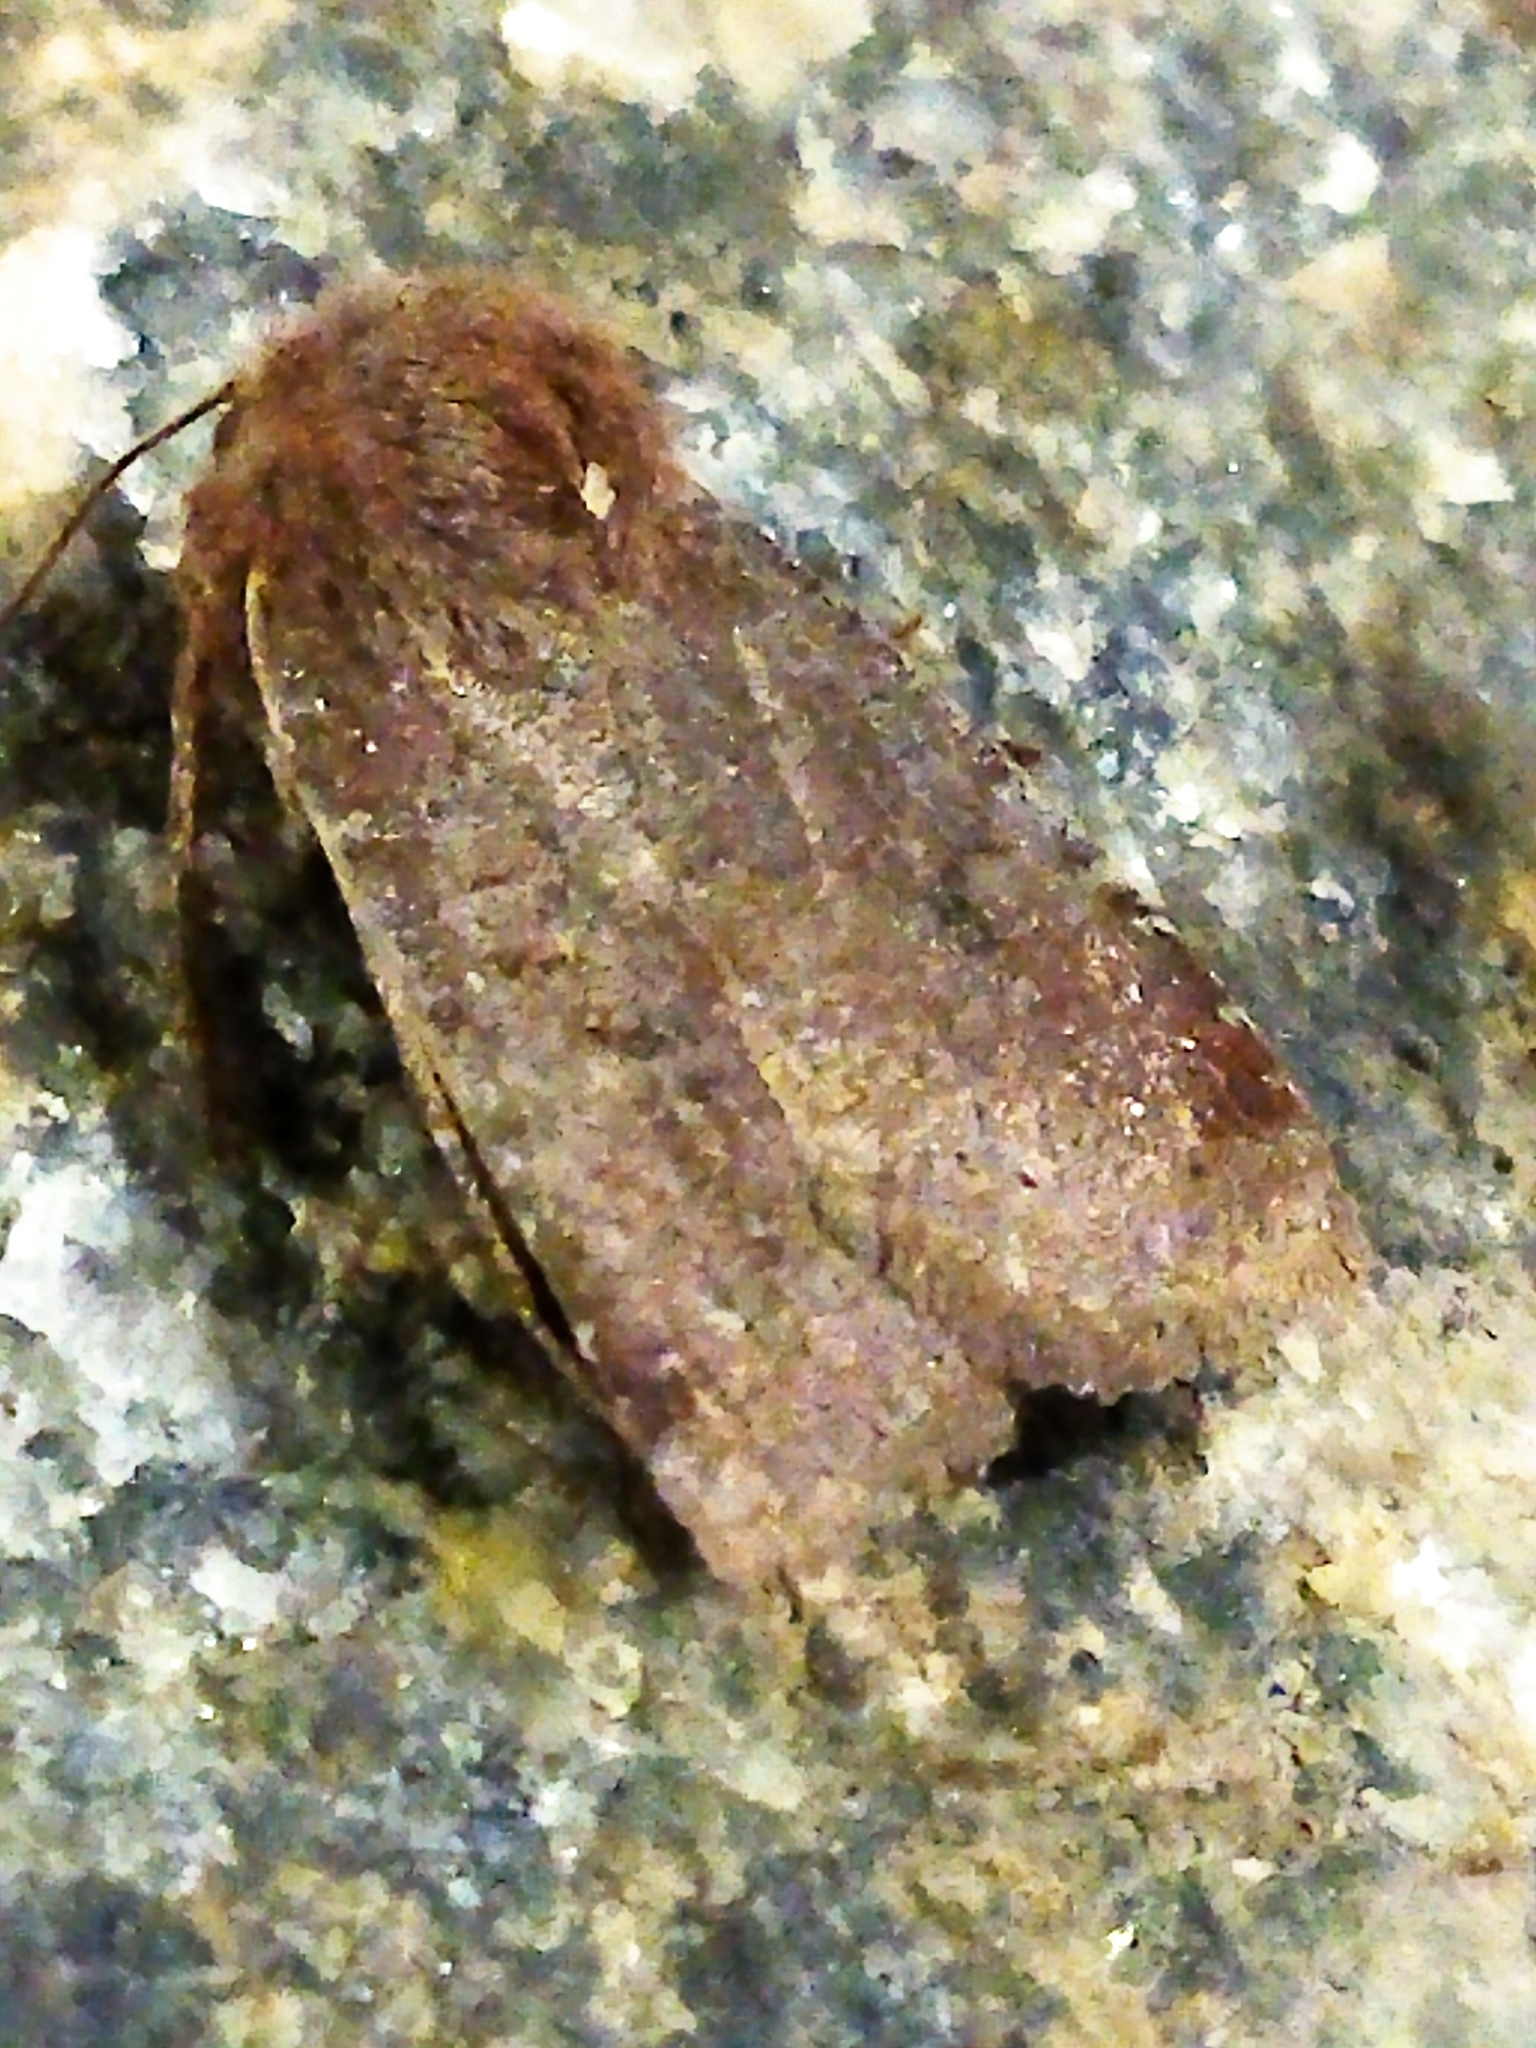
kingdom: Animalia
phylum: Arthropoda
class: Insecta
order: Lepidoptera
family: Noctuidae
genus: Conistra
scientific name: Conistra vaccinii
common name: Chestnut
